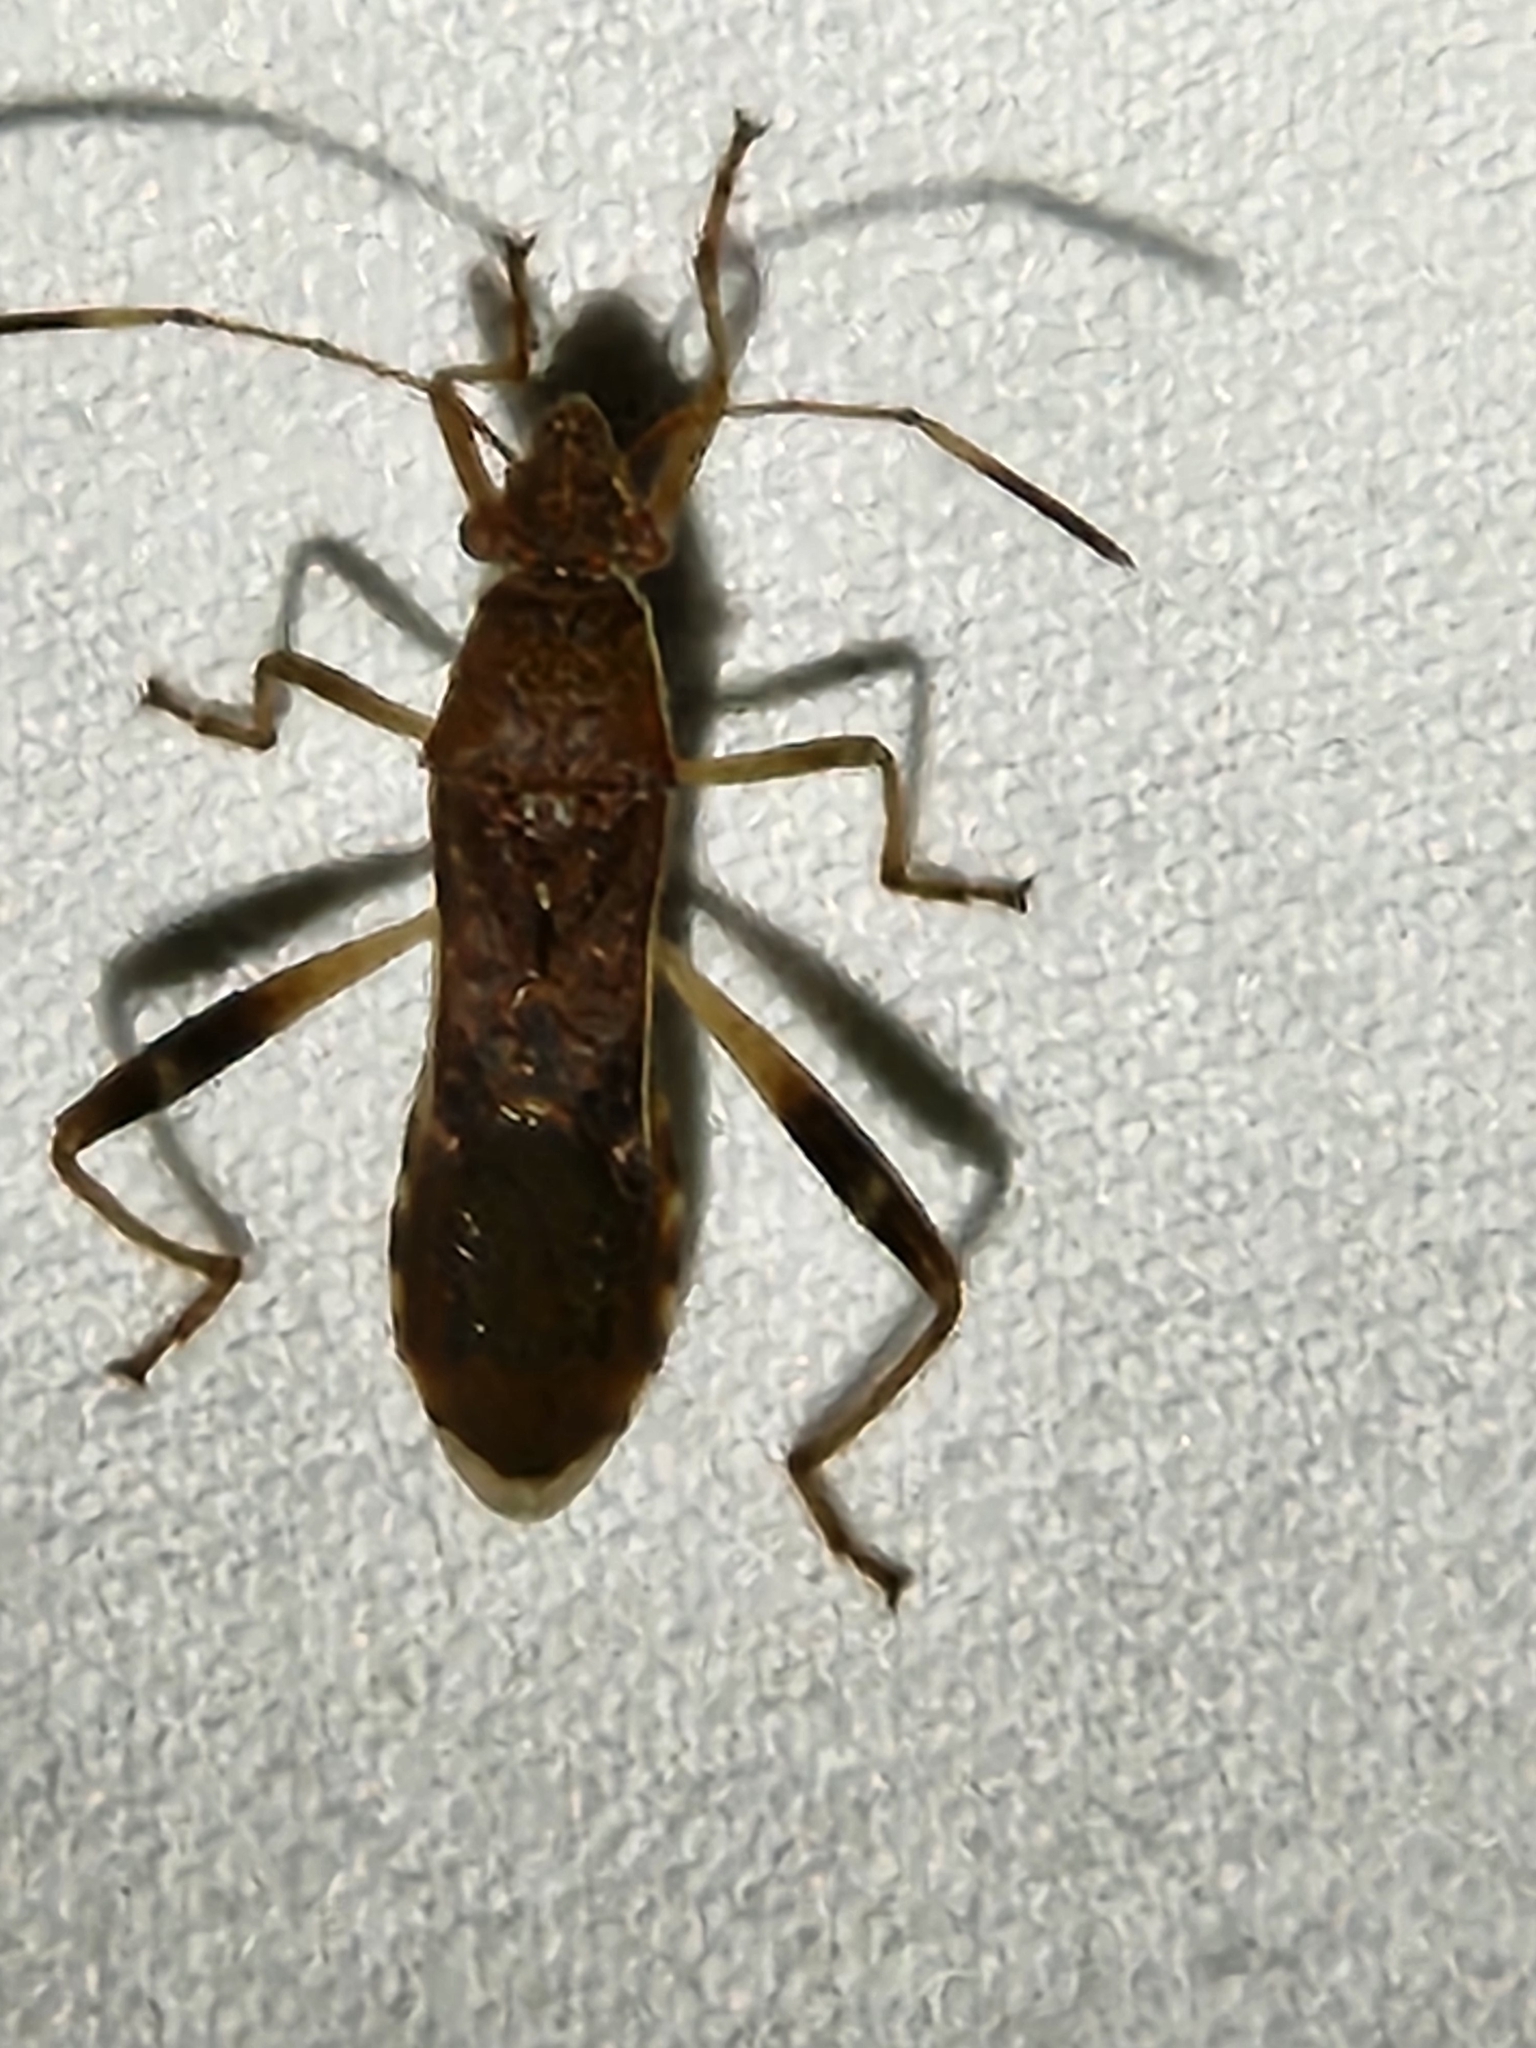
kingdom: Animalia
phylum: Arthropoda
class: Insecta
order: Hemiptera
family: Alydidae
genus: Burtinus
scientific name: Burtinus notatipennis
